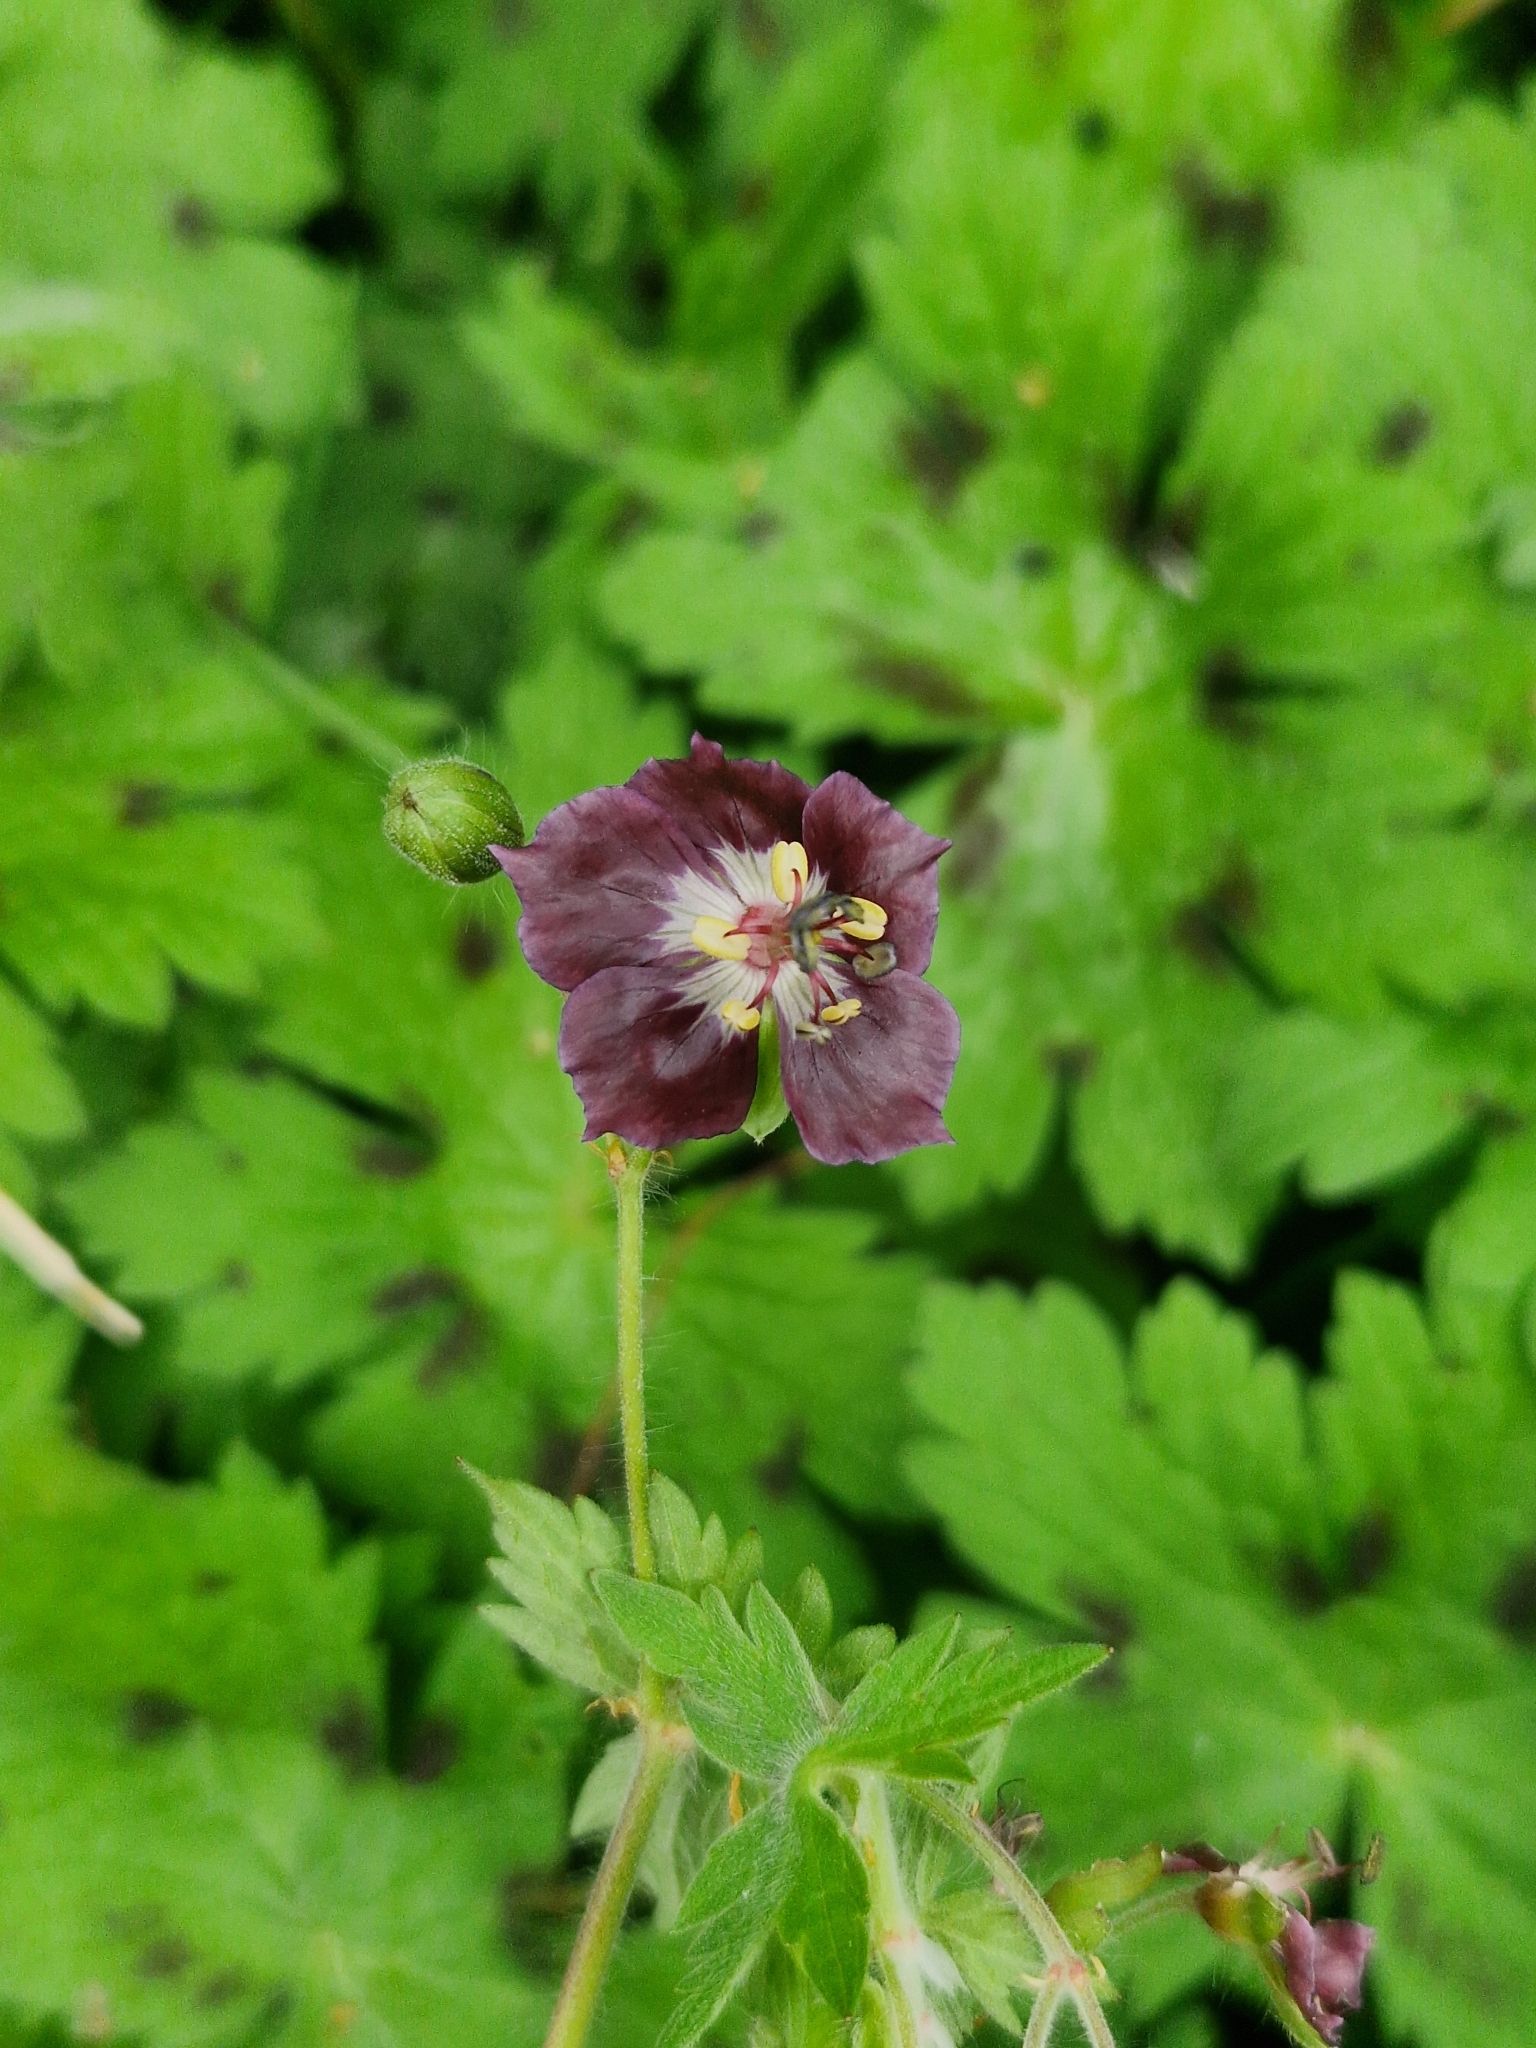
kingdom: Plantae
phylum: Tracheophyta
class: Magnoliopsida
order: Geraniales
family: Geraniaceae
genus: Geranium
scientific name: Geranium phaeum
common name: Dusky crane's-bill
